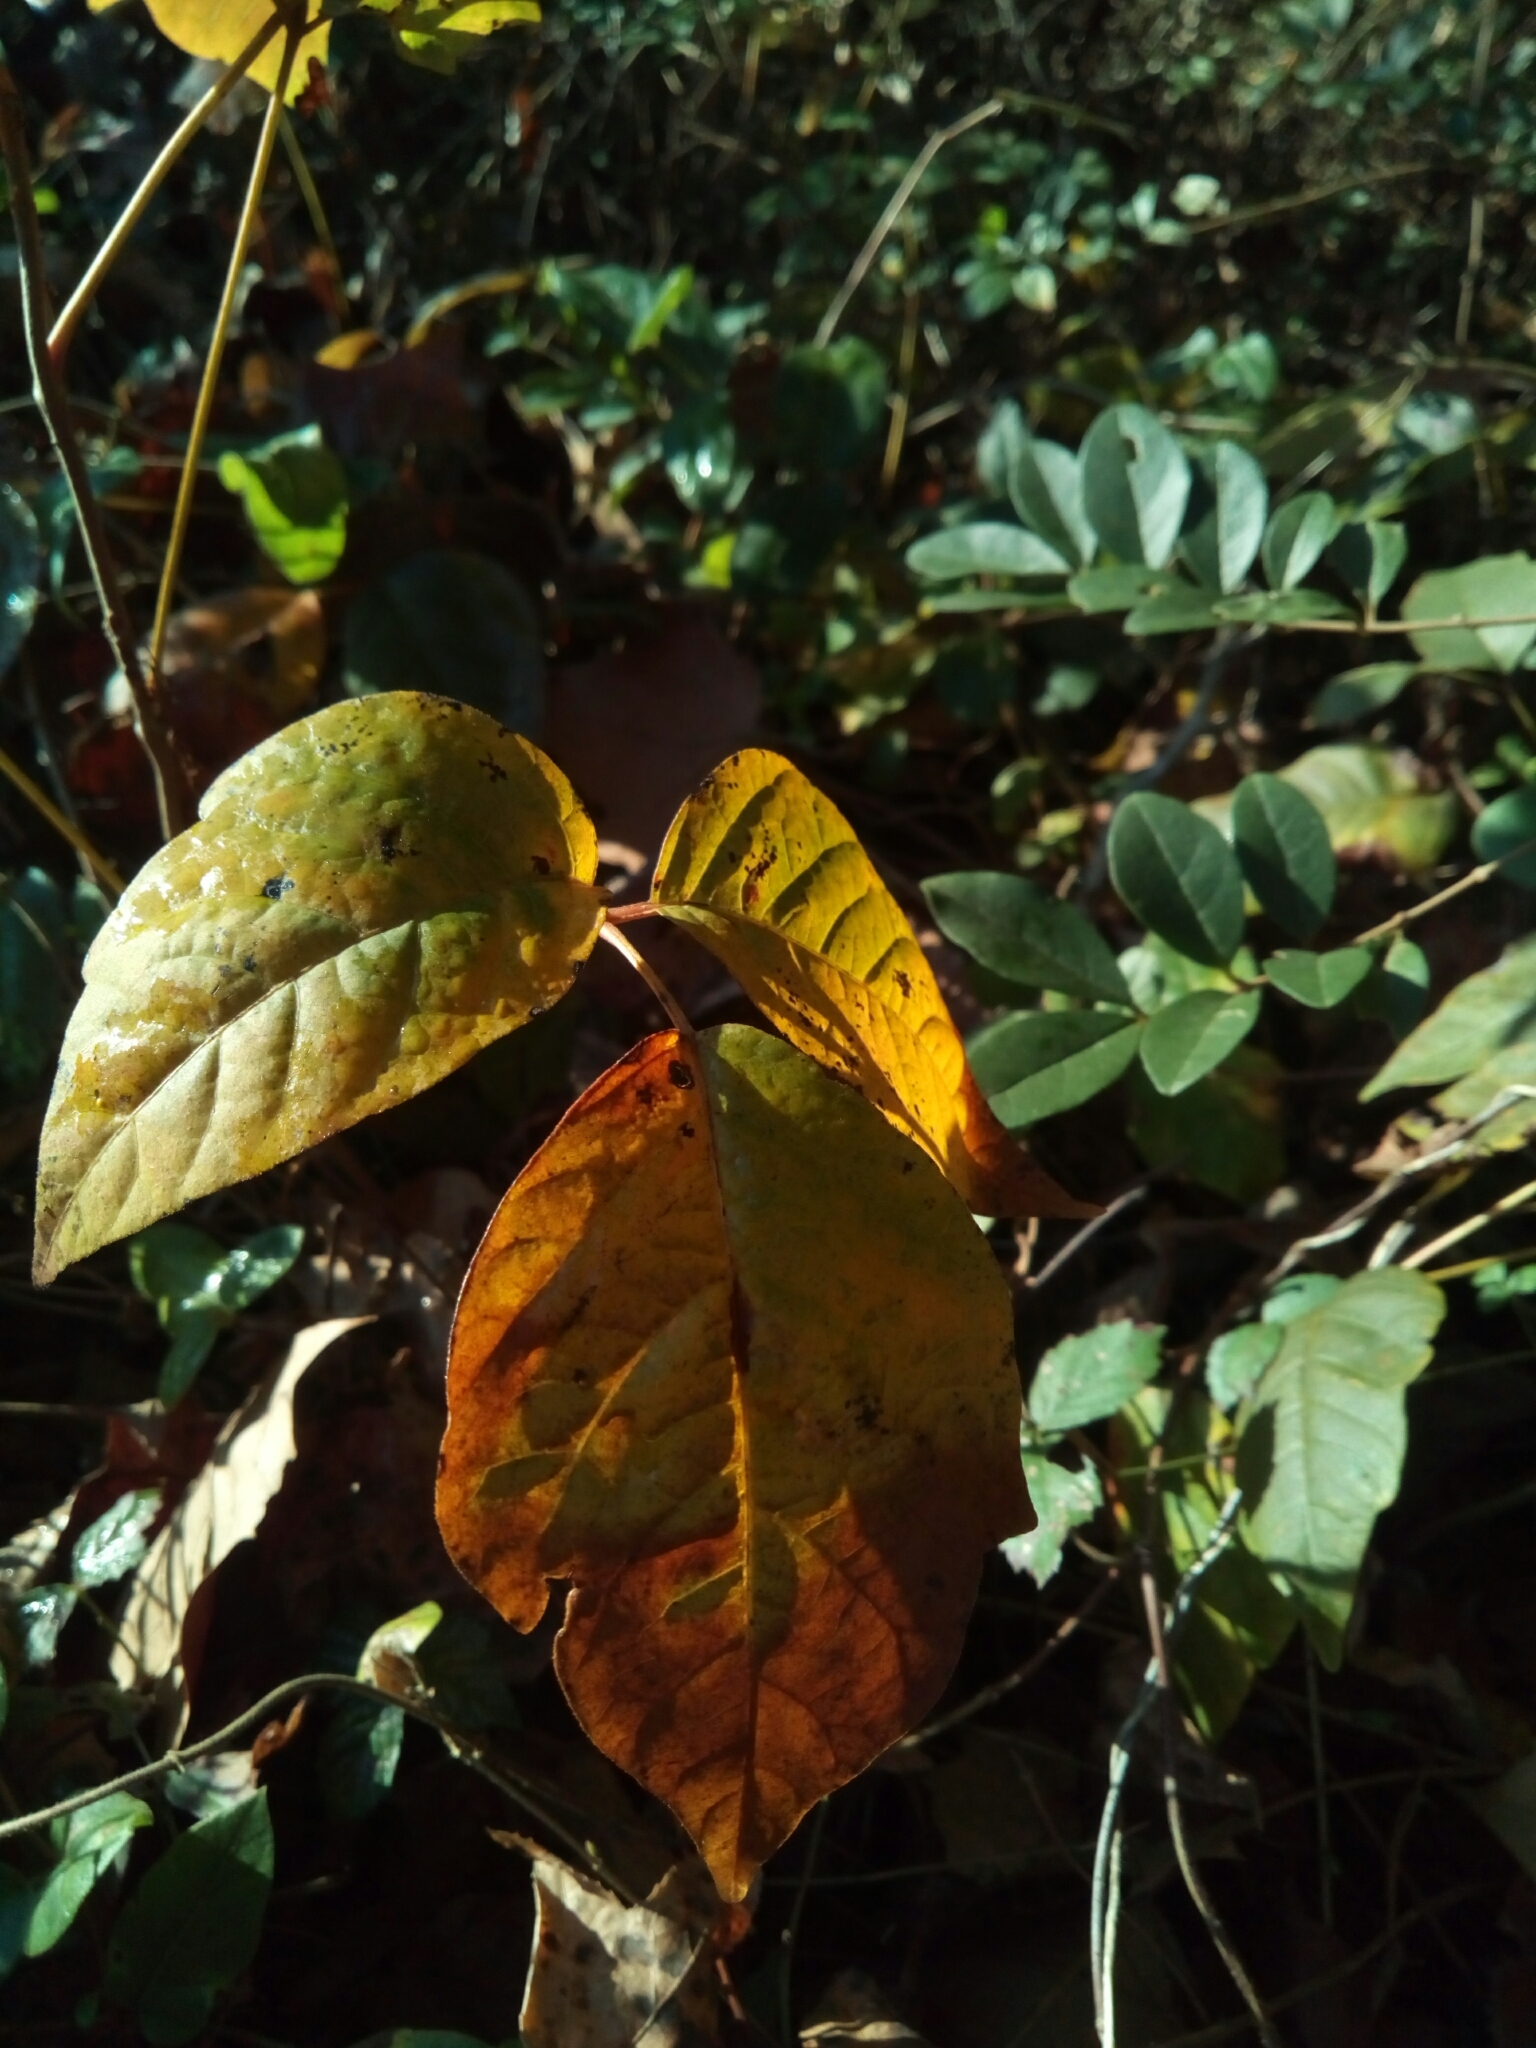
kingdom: Plantae
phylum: Tracheophyta
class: Magnoliopsida
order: Sapindales
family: Anacardiaceae
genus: Toxicodendron
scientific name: Toxicodendron radicans
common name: Poison ivy
